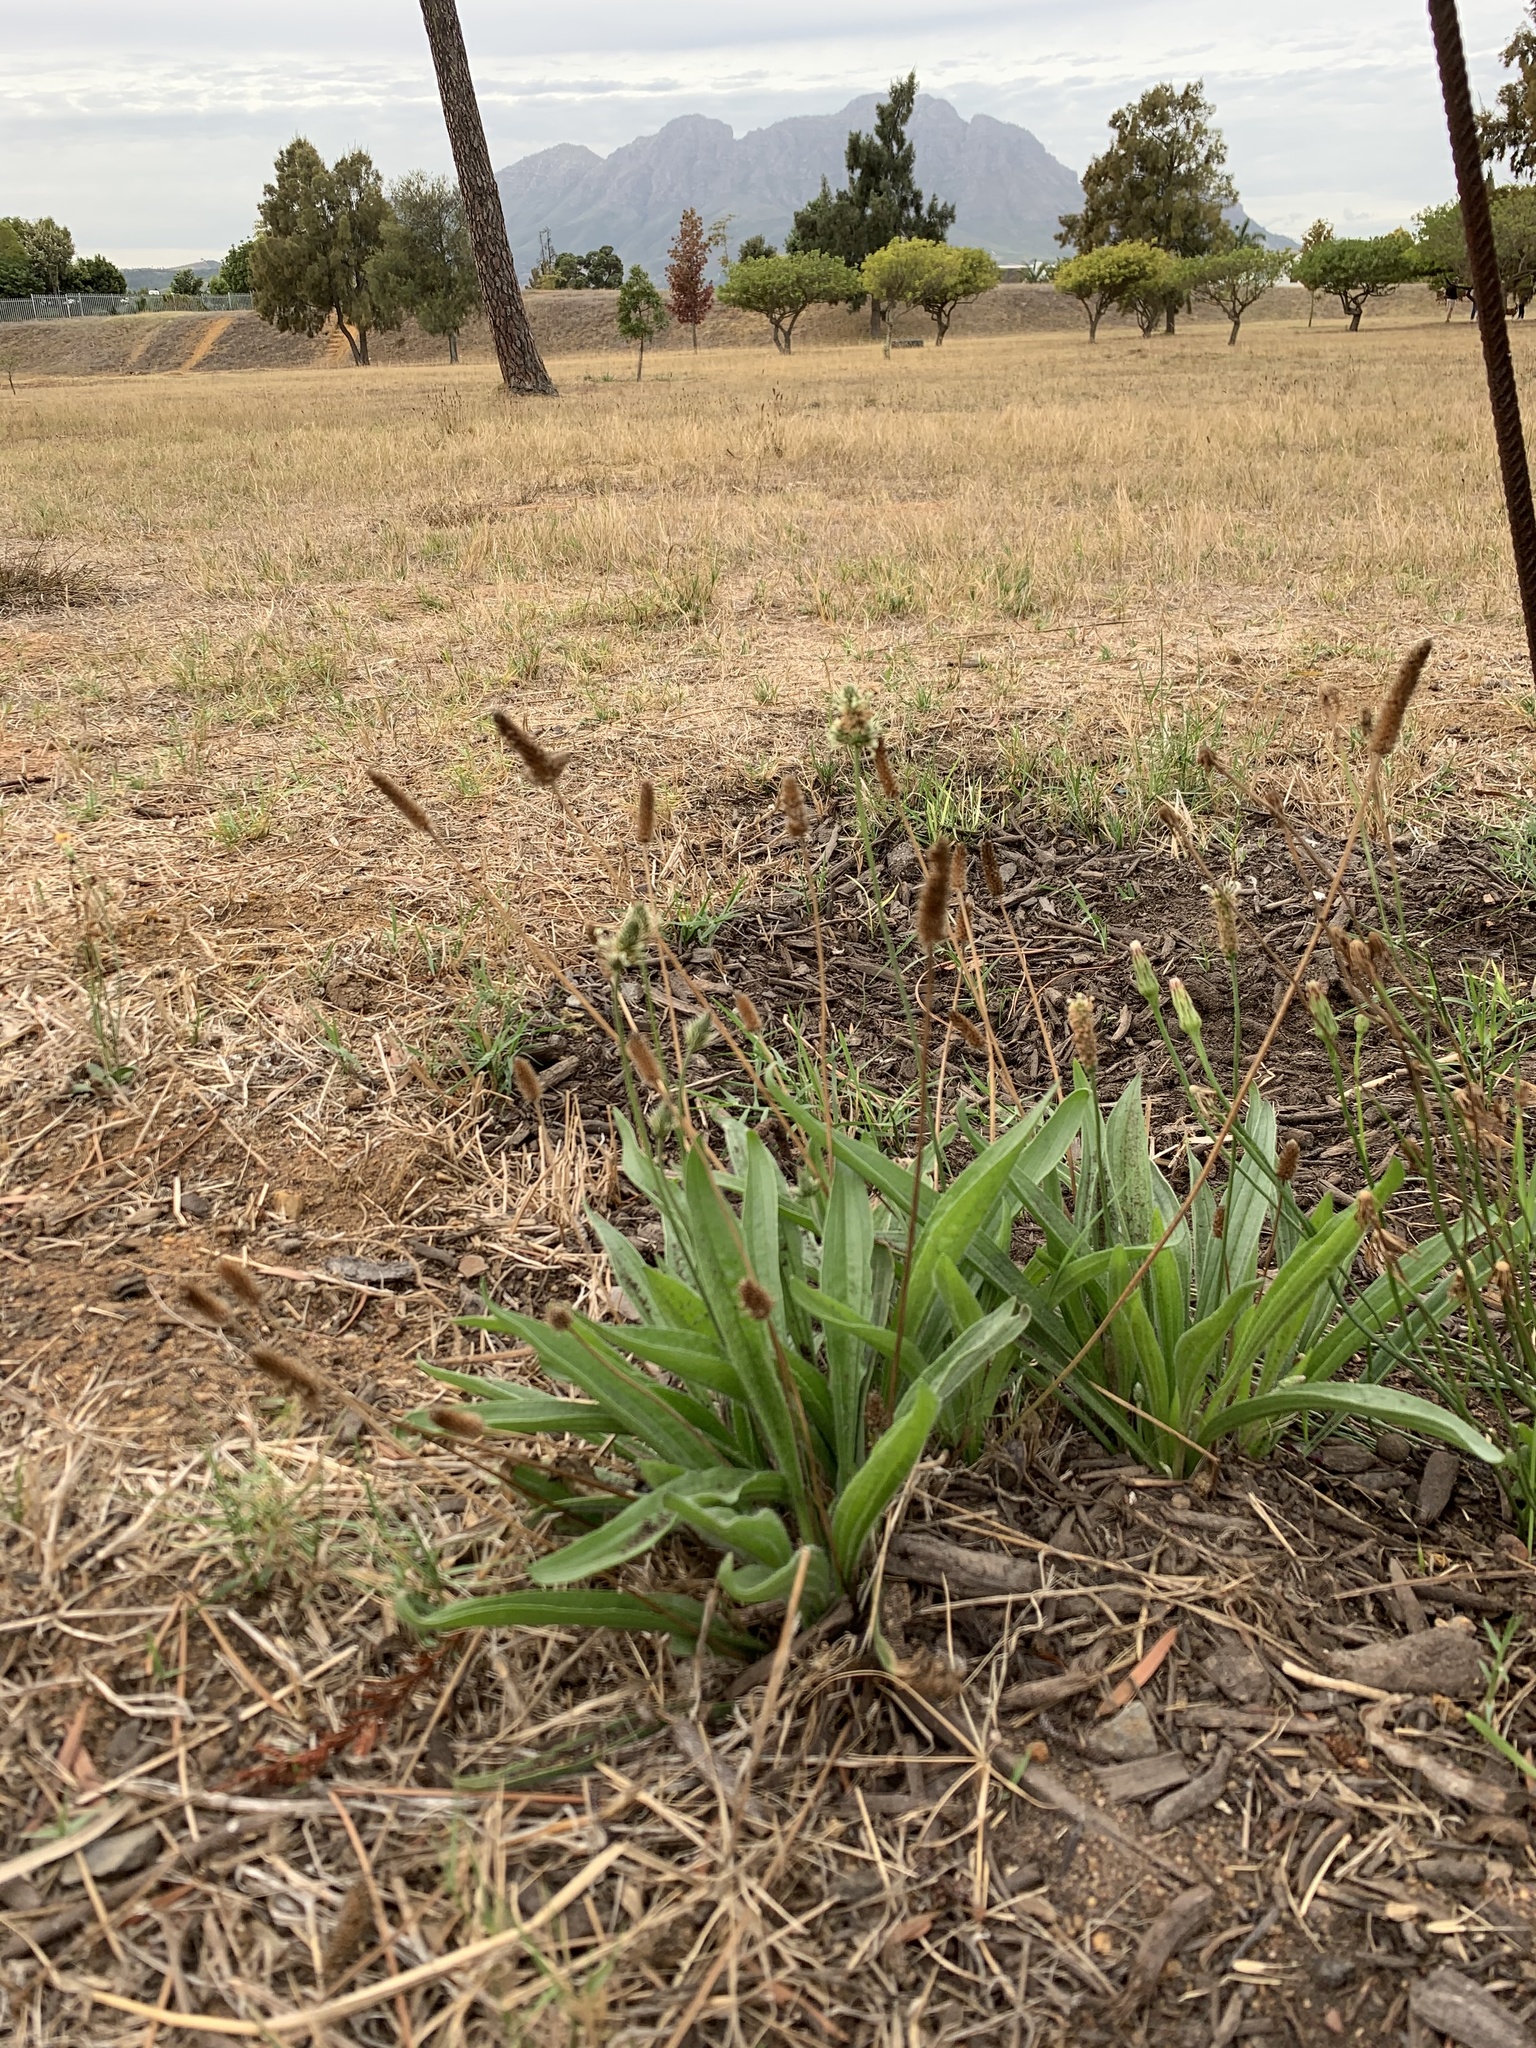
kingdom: Plantae
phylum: Tracheophyta
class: Magnoliopsida
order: Lamiales
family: Plantaginaceae
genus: Plantago
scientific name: Plantago lanceolata
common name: Ribwort plantain
